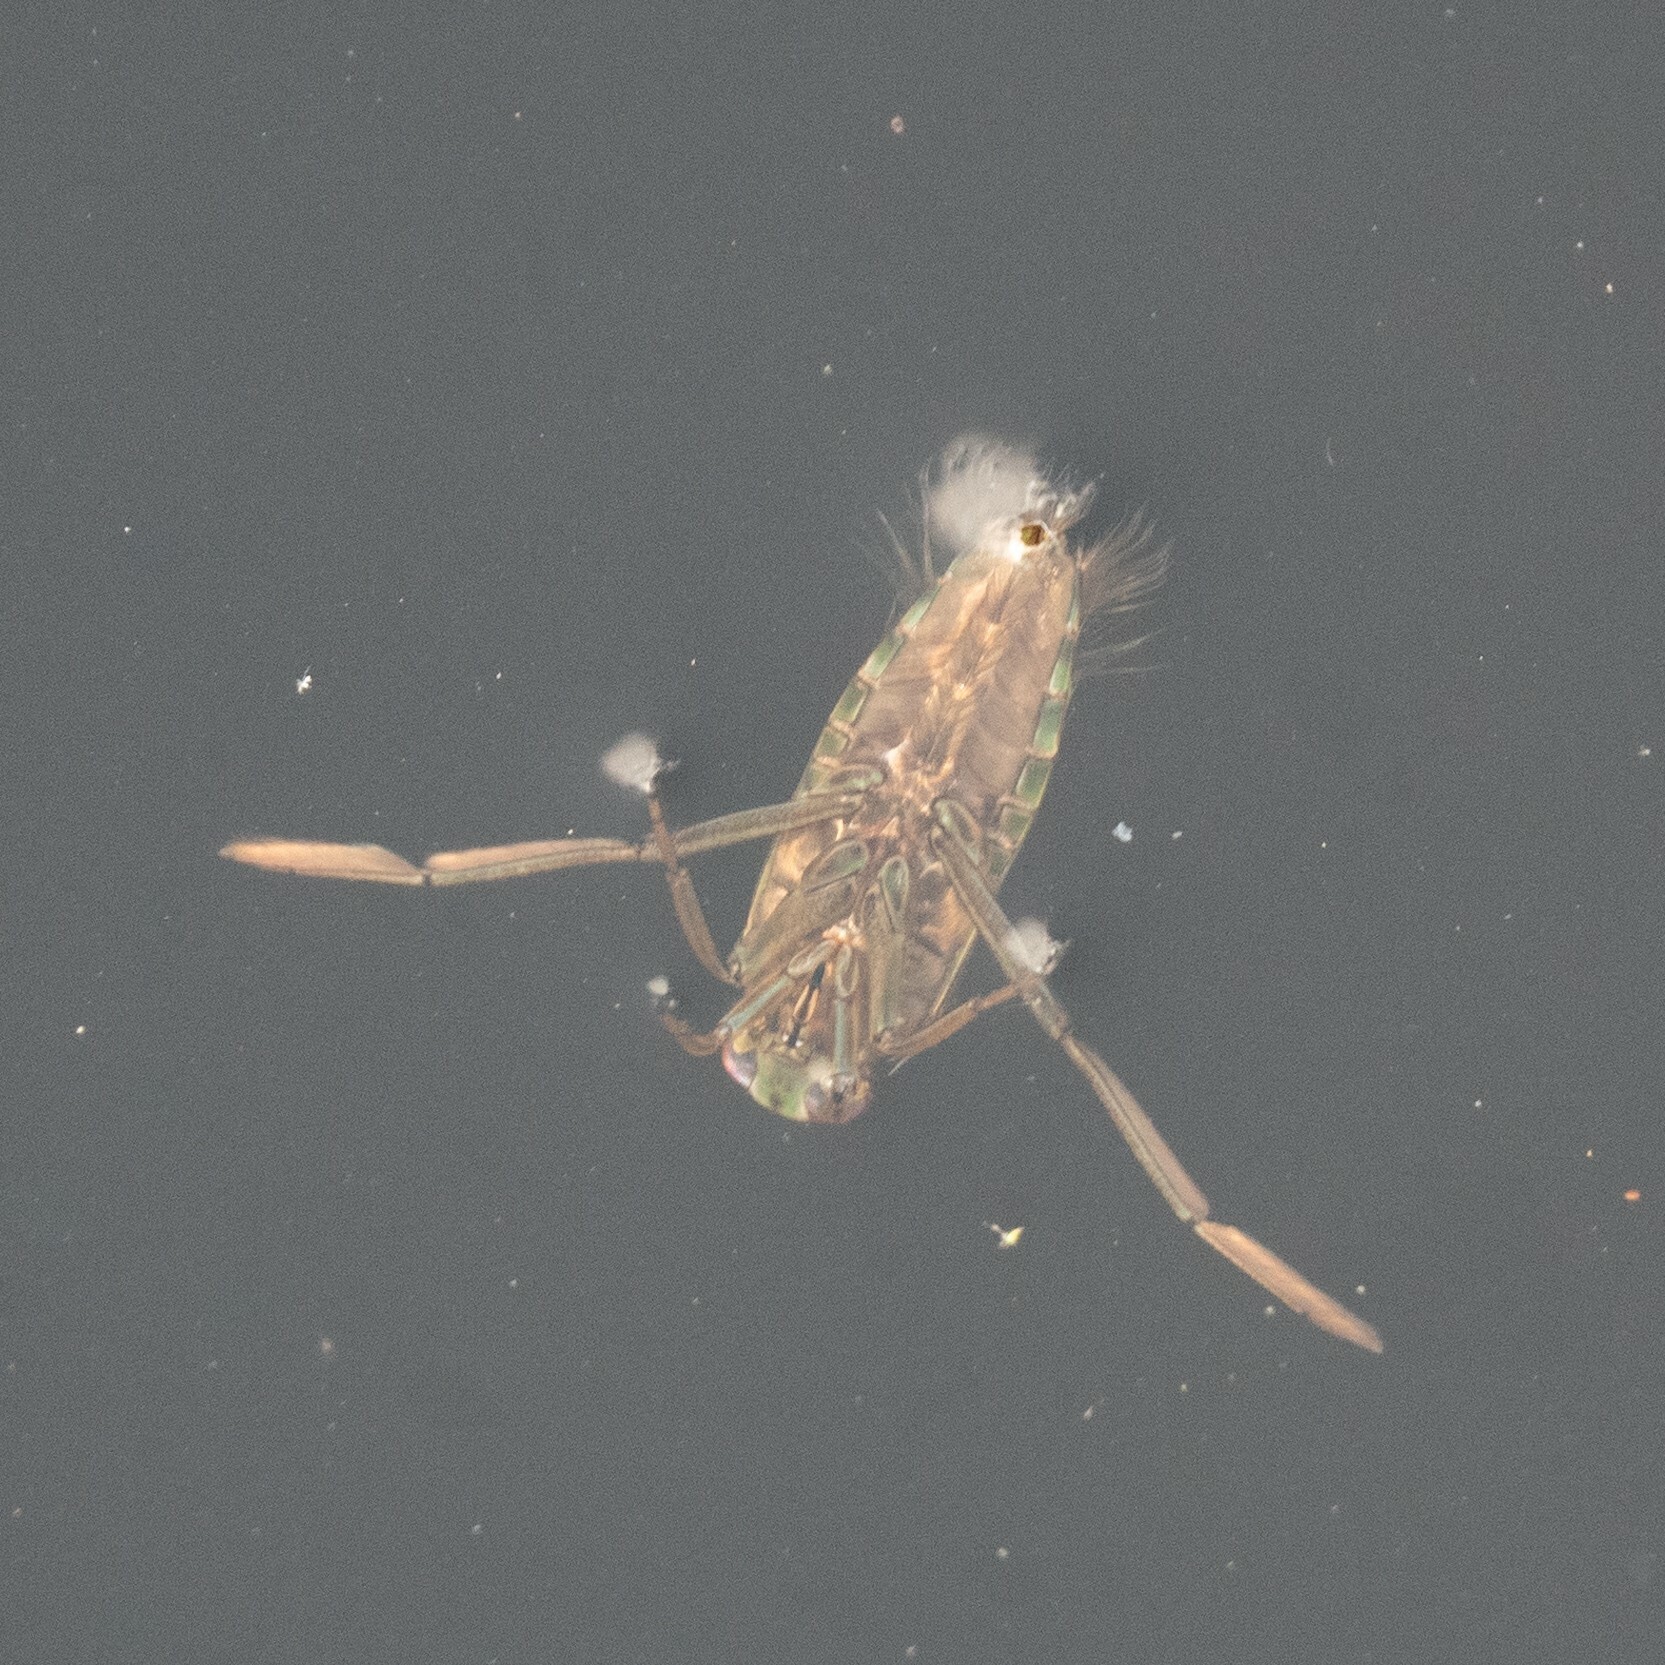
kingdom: Animalia
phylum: Arthropoda
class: Insecta
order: Hemiptera
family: Notonectidae
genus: Notonecta
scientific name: Notonecta
